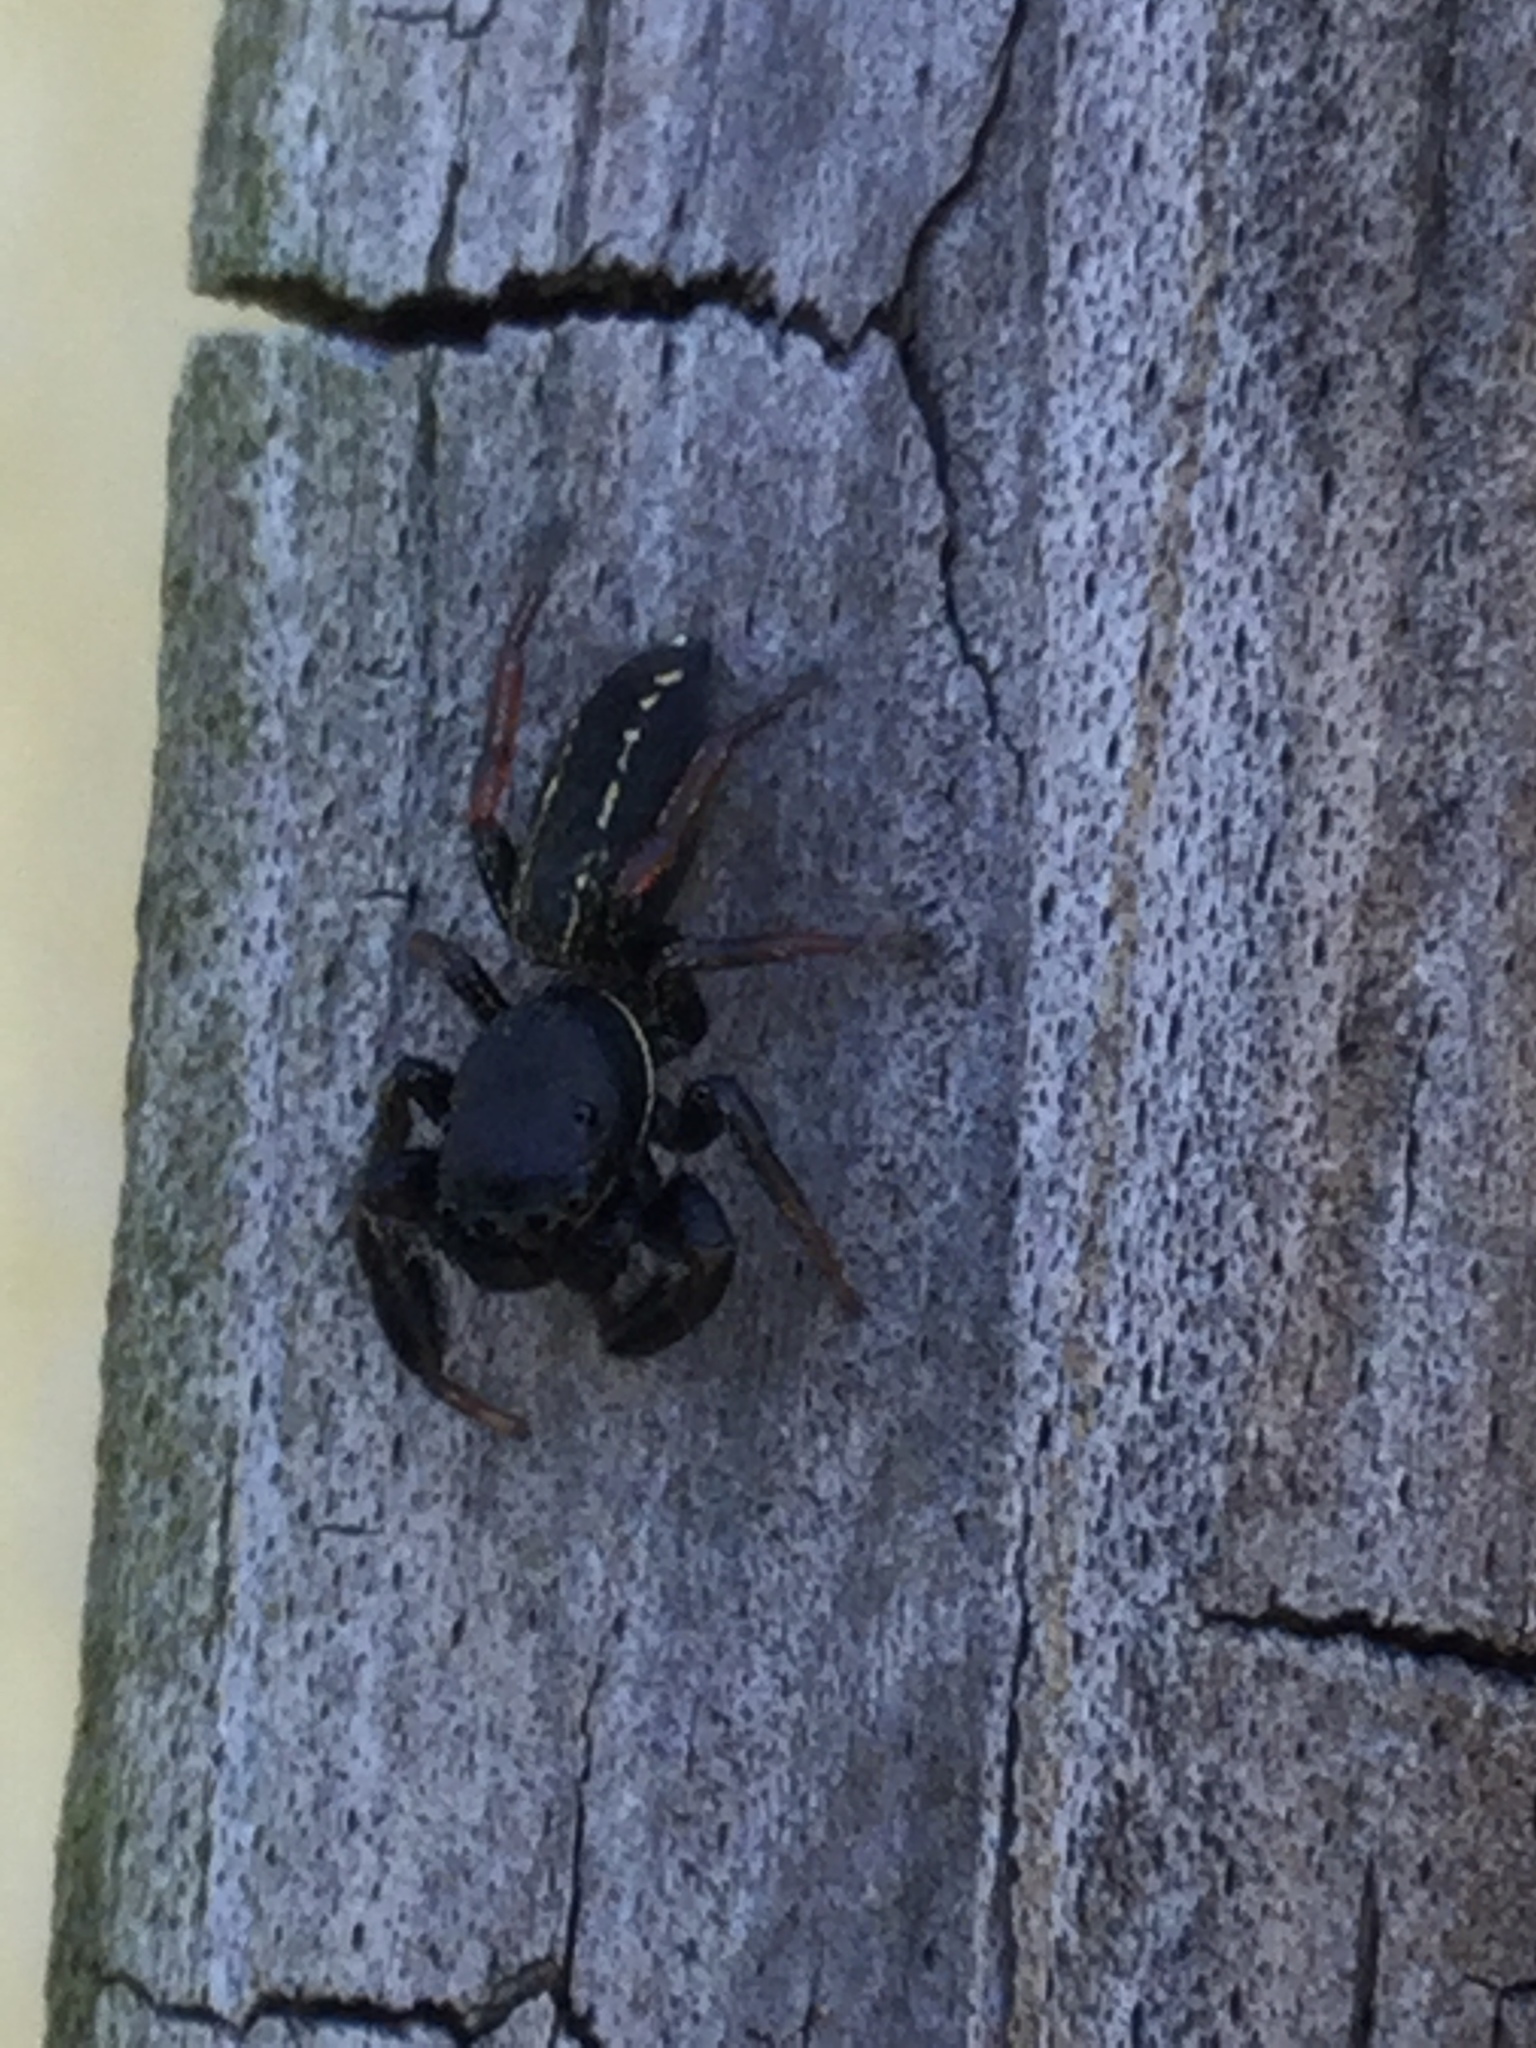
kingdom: Animalia
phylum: Arthropoda
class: Arachnida
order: Araneae
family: Salticidae
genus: Metacyrba
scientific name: Metacyrba taeniola
